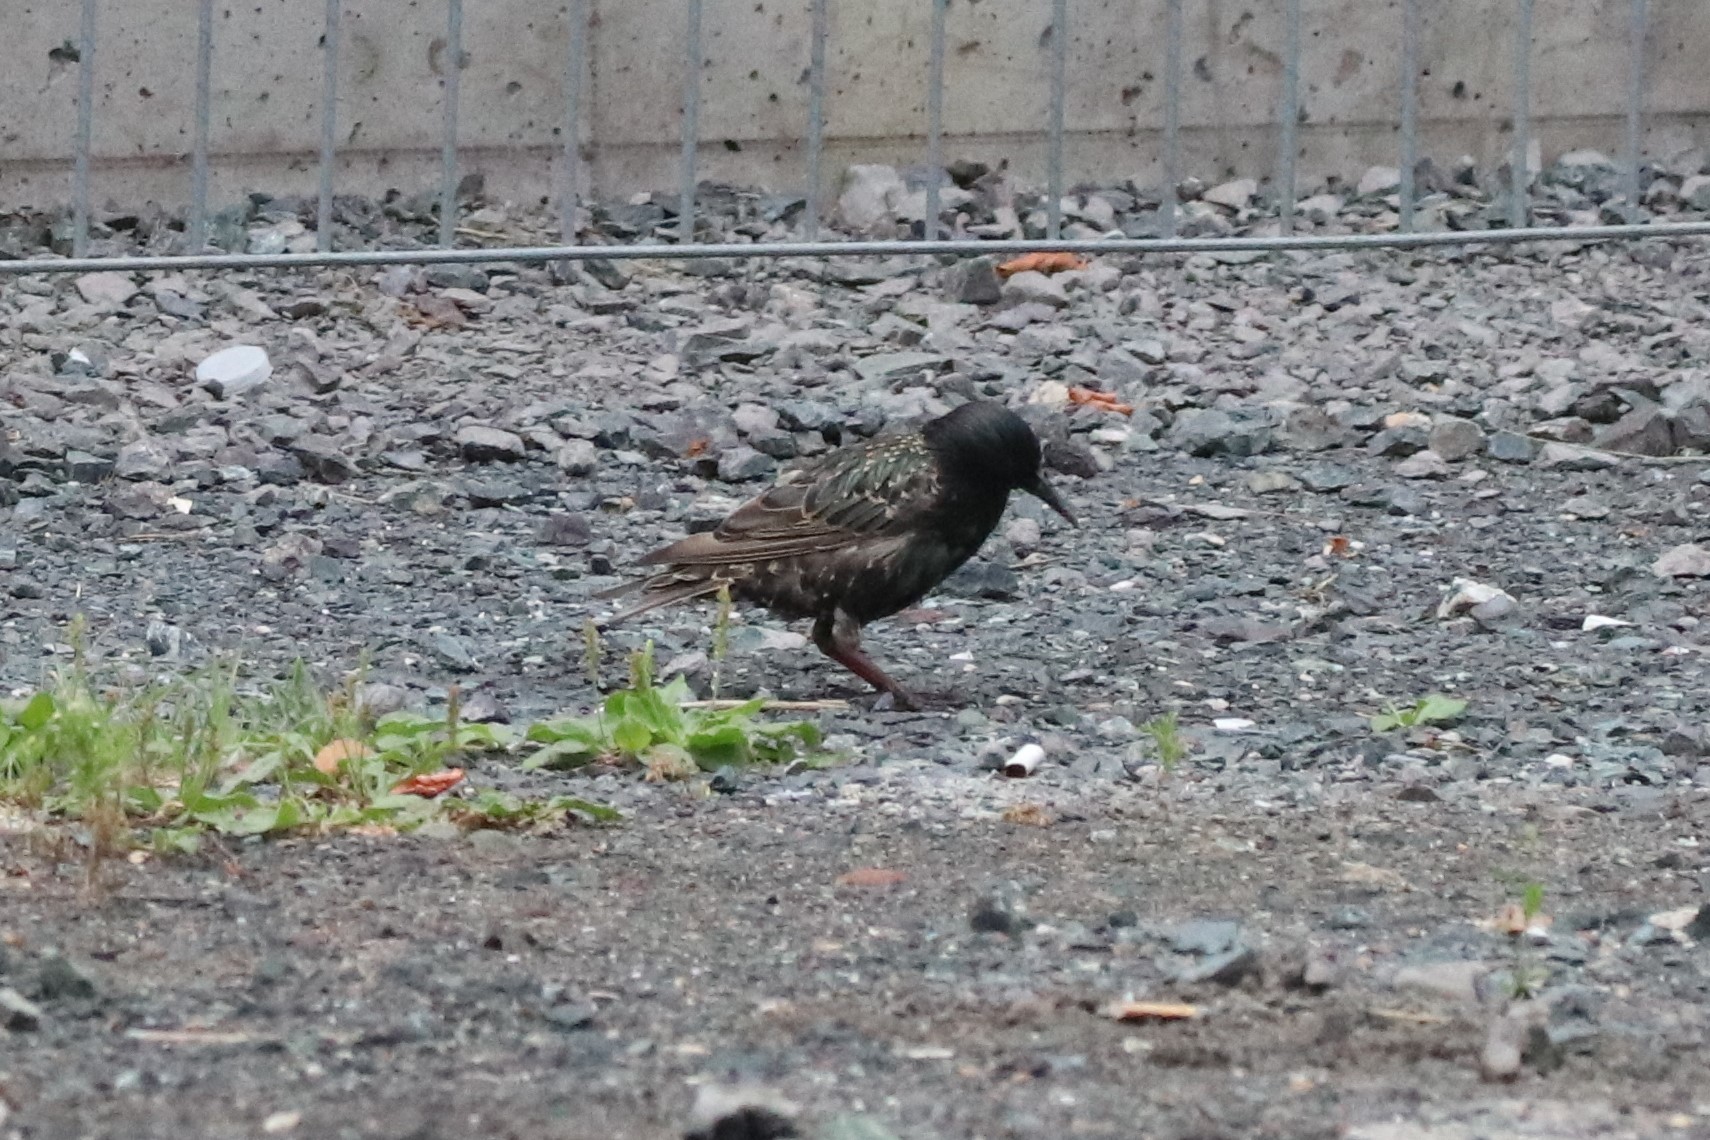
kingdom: Animalia
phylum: Chordata
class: Aves
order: Passeriformes
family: Sturnidae
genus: Sturnus
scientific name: Sturnus vulgaris
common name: Common starling
